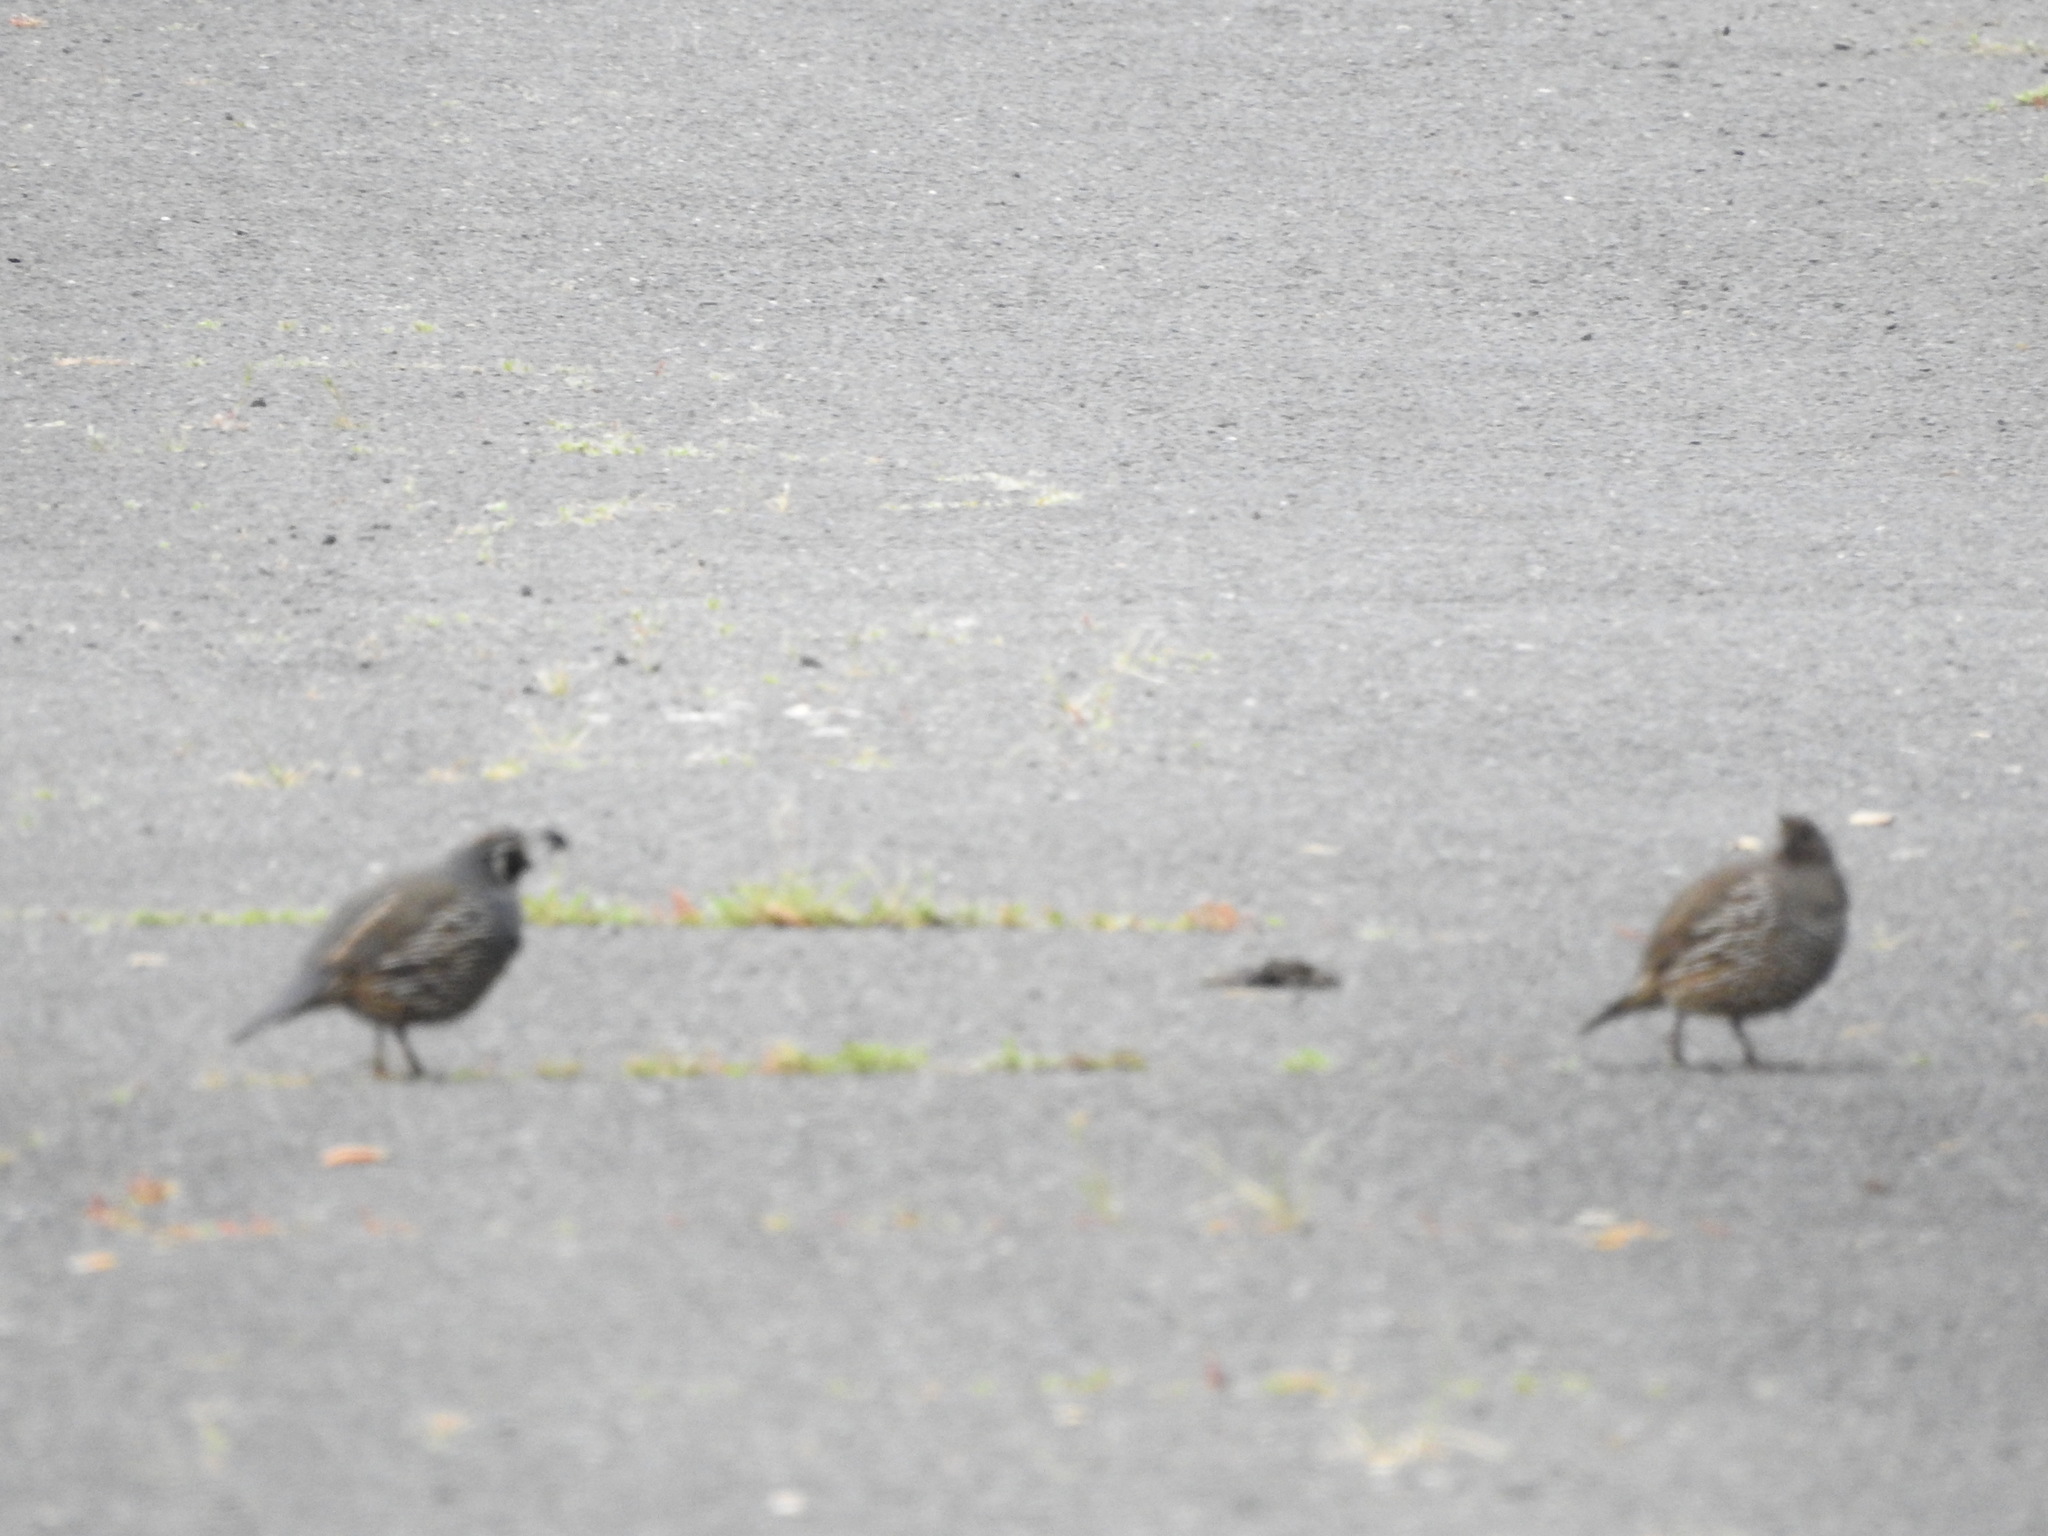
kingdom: Animalia
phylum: Chordata
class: Aves
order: Galliformes
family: Odontophoridae
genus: Callipepla
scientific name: Callipepla californica
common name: California quail
